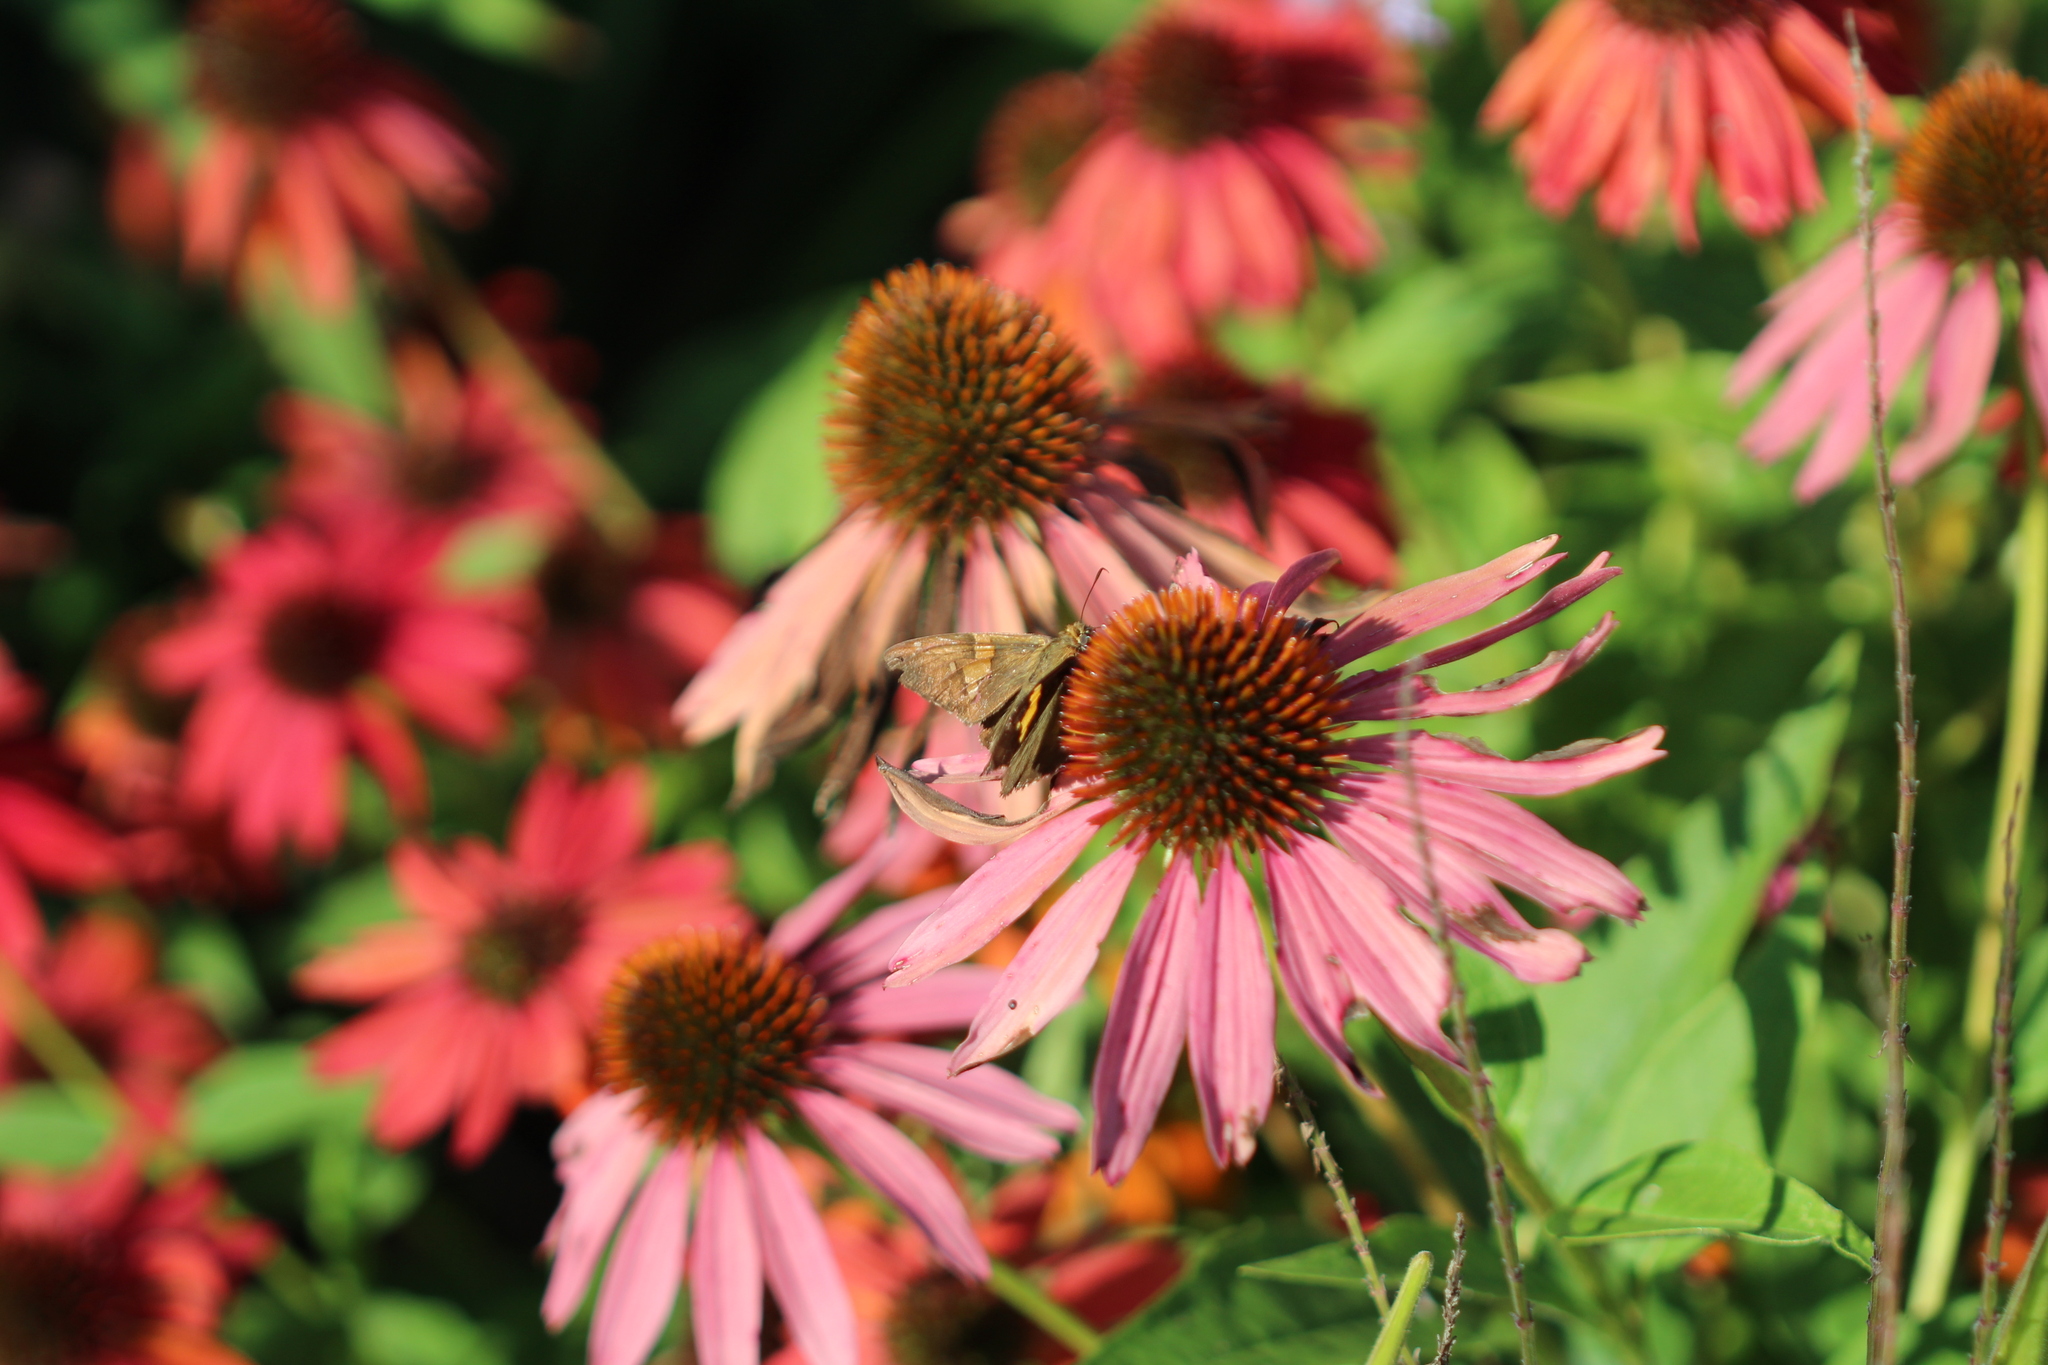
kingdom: Animalia
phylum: Arthropoda
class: Insecta
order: Lepidoptera
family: Hesperiidae
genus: Epargyreus
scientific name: Epargyreus clarus
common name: Silver-spotted skipper
